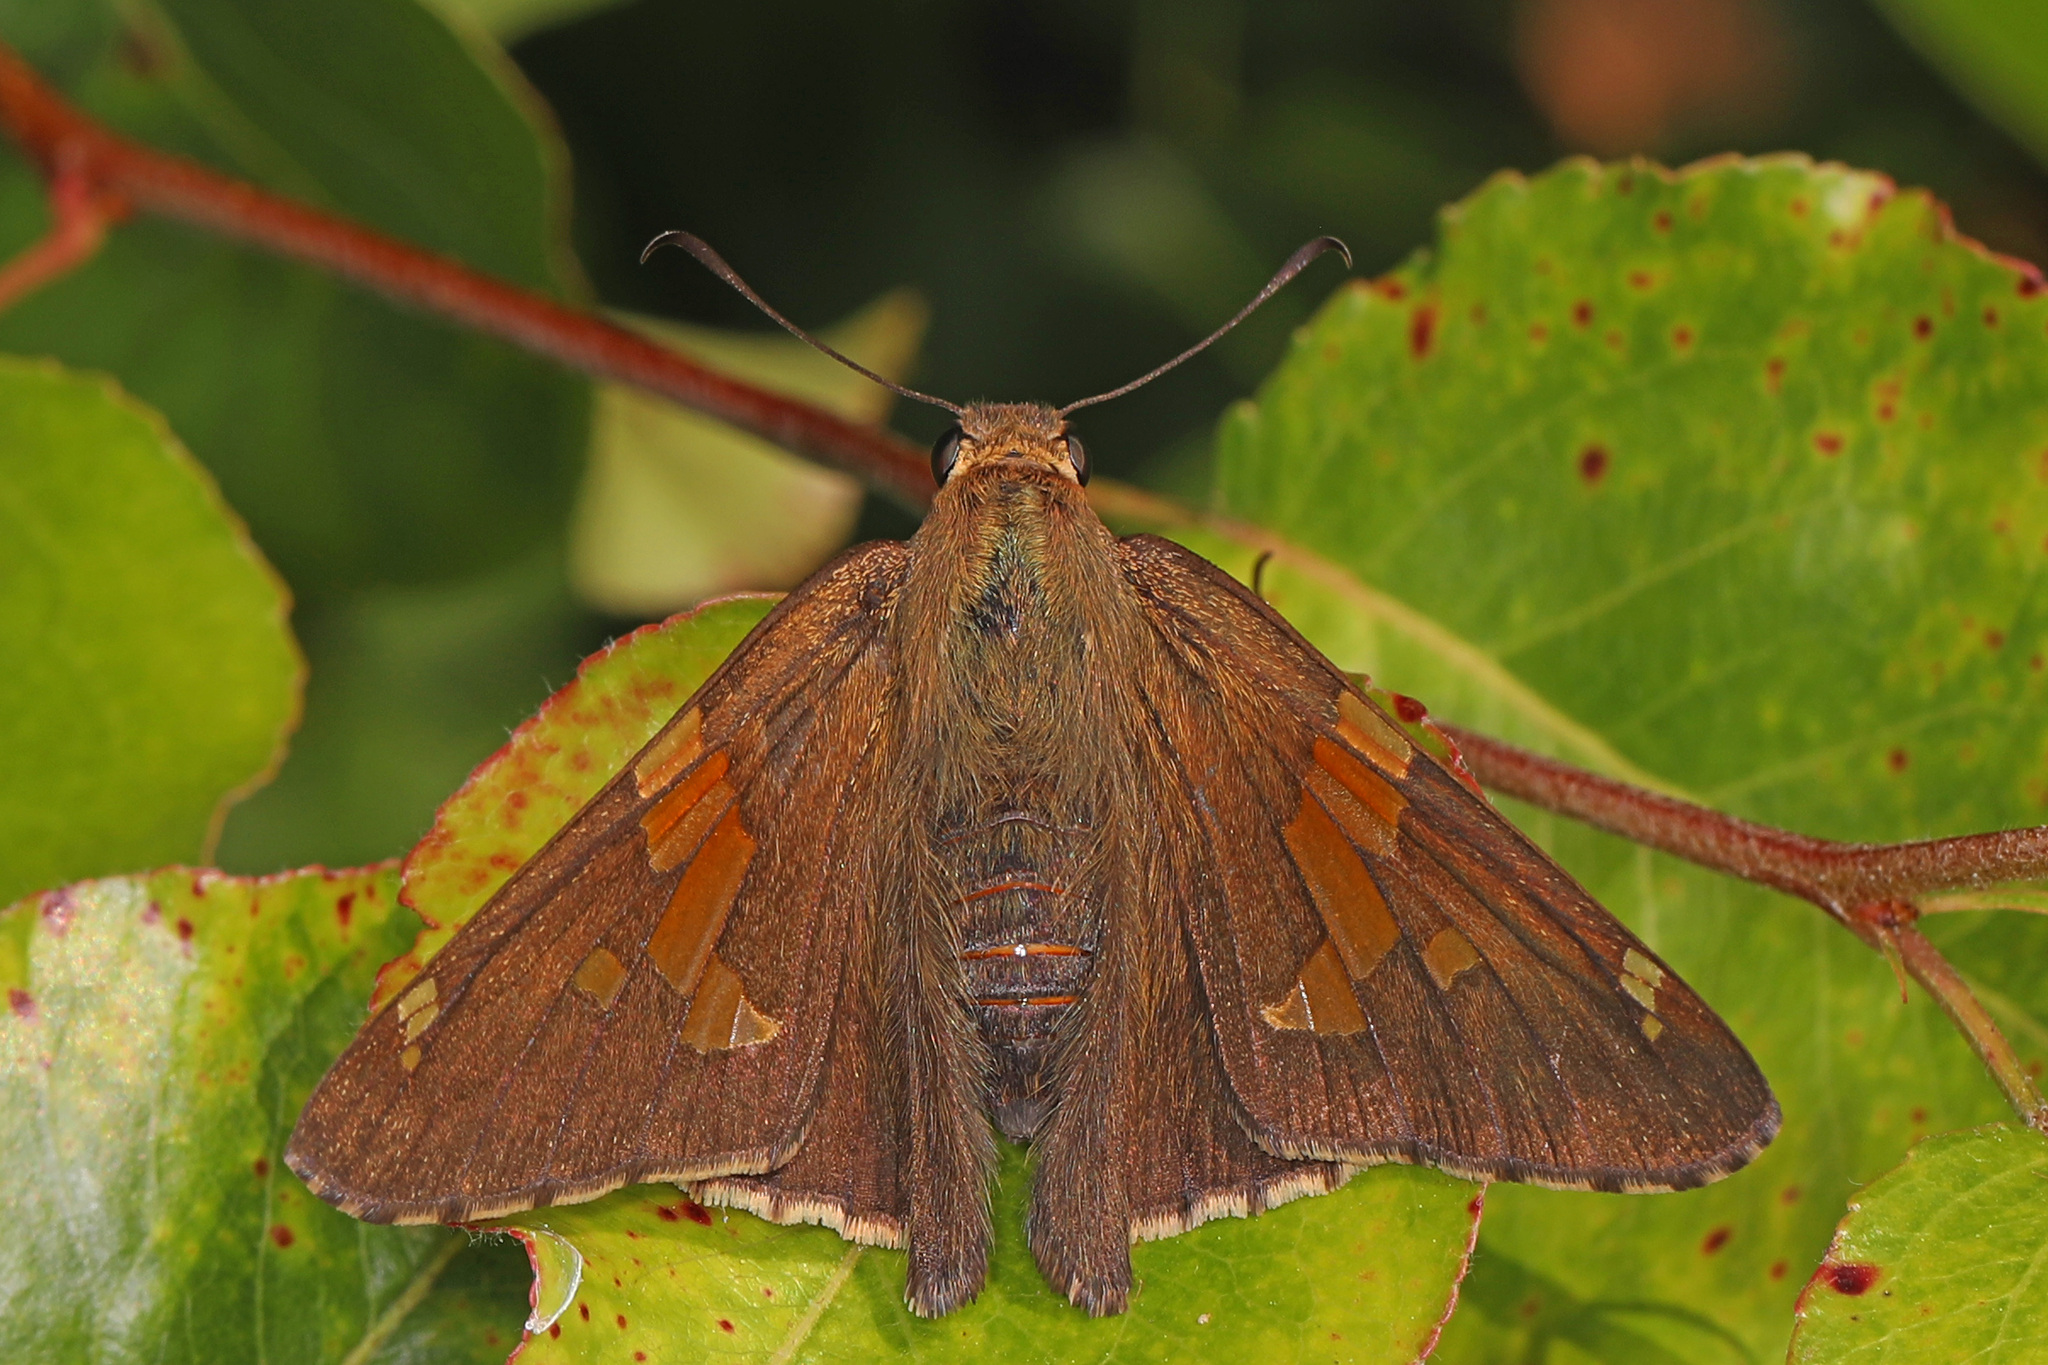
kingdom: Animalia
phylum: Arthropoda
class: Insecta
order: Lepidoptera
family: Hesperiidae
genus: Epargyreus
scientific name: Epargyreus clarus
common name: Silver-spotted skipper
